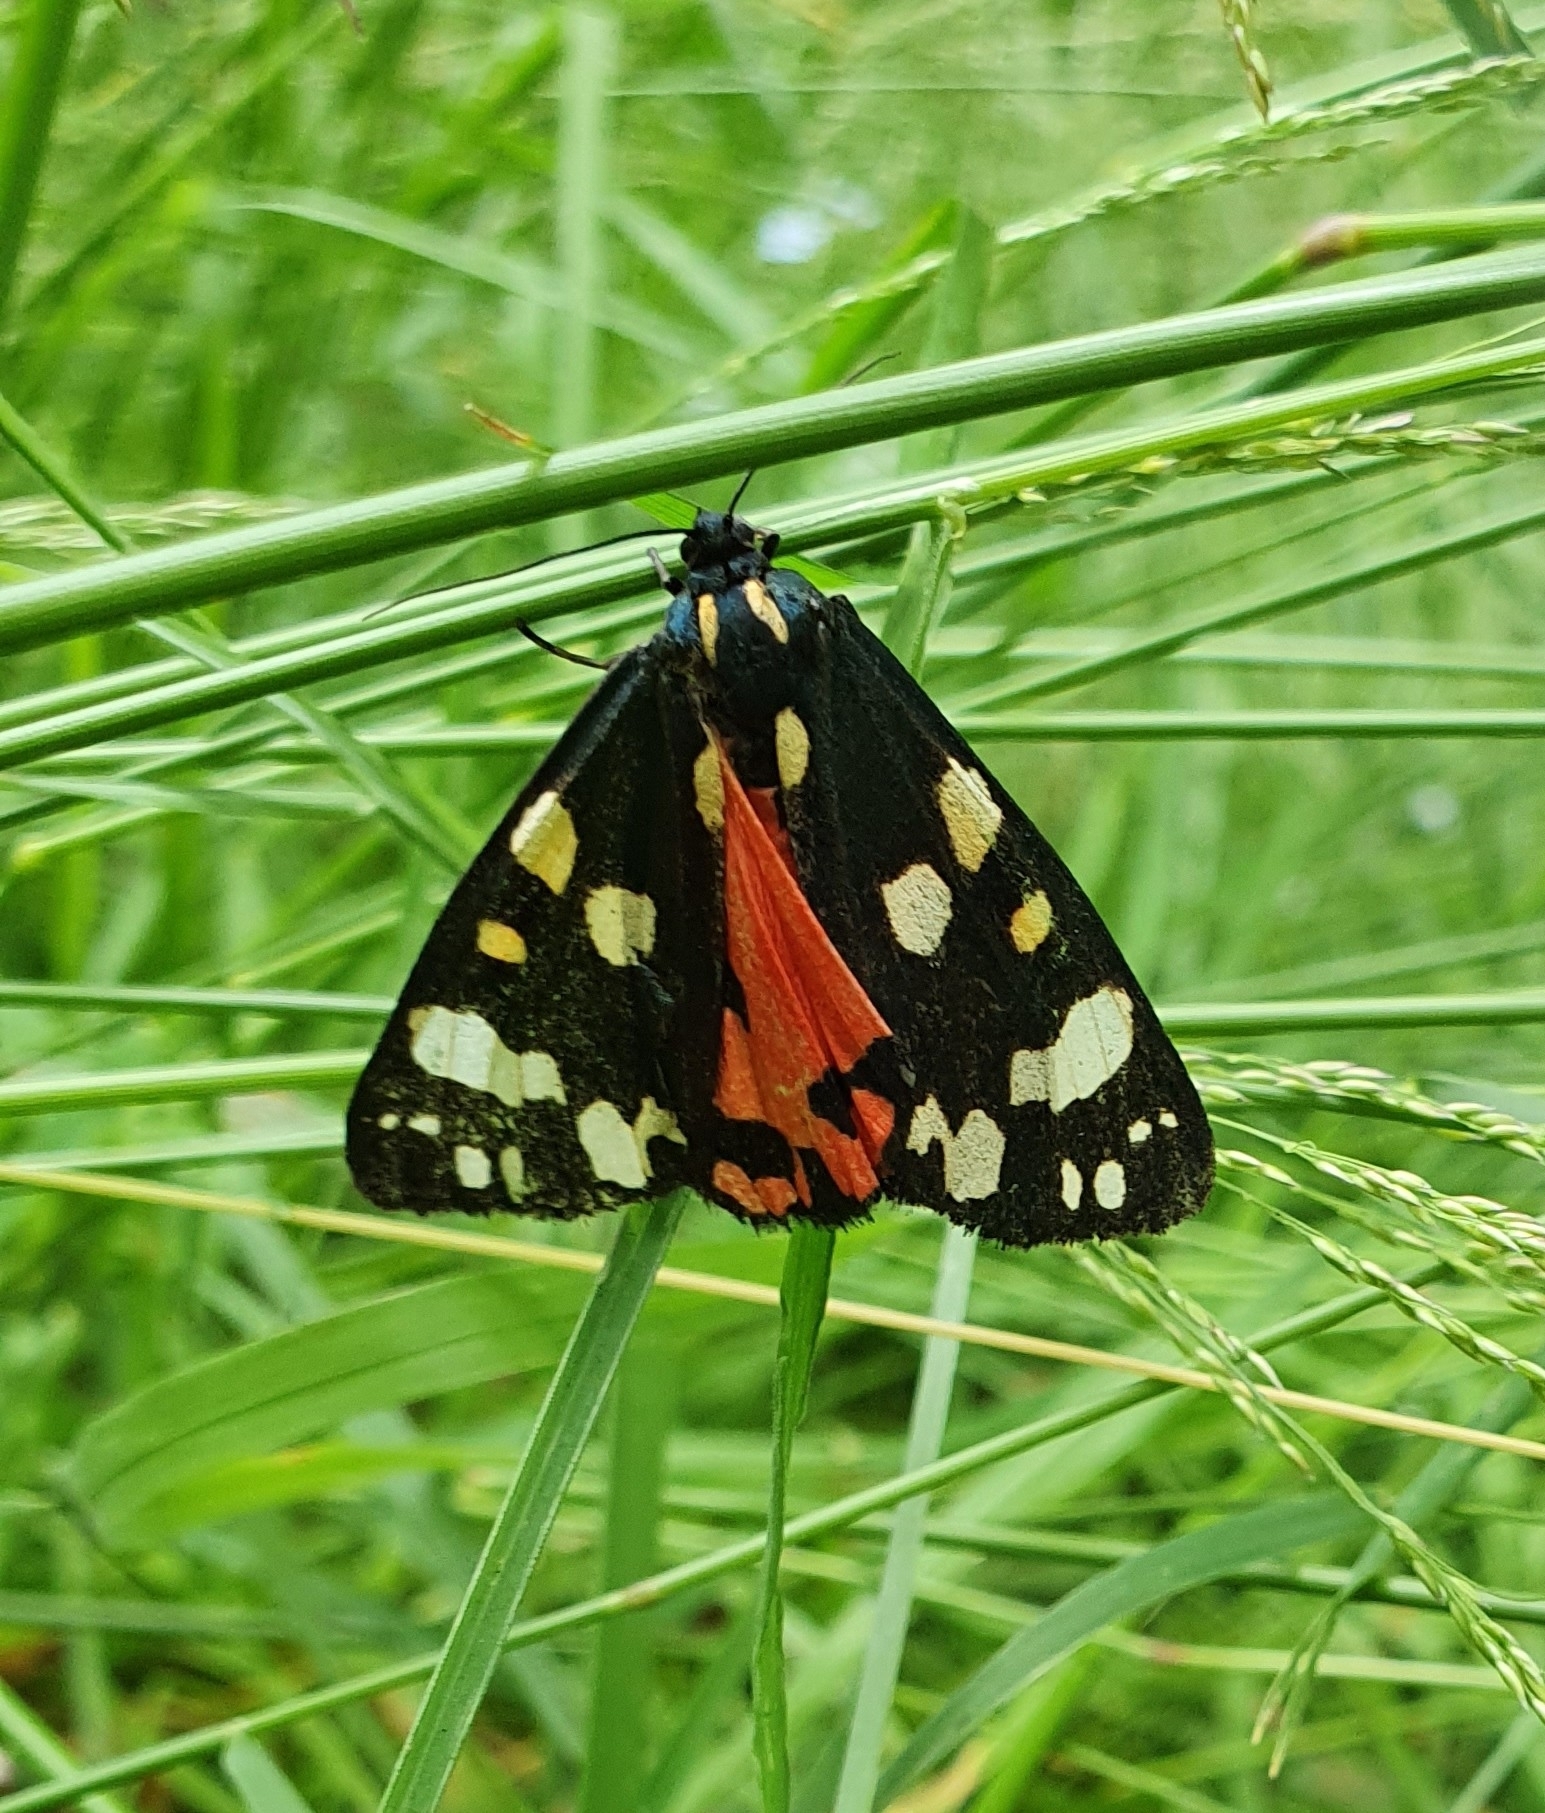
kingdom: Animalia
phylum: Arthropoda
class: Insecta
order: Lepidoptera
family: Erebidae
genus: Callimorpha
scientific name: Callimorpha dominula
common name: Scarlet tiger
